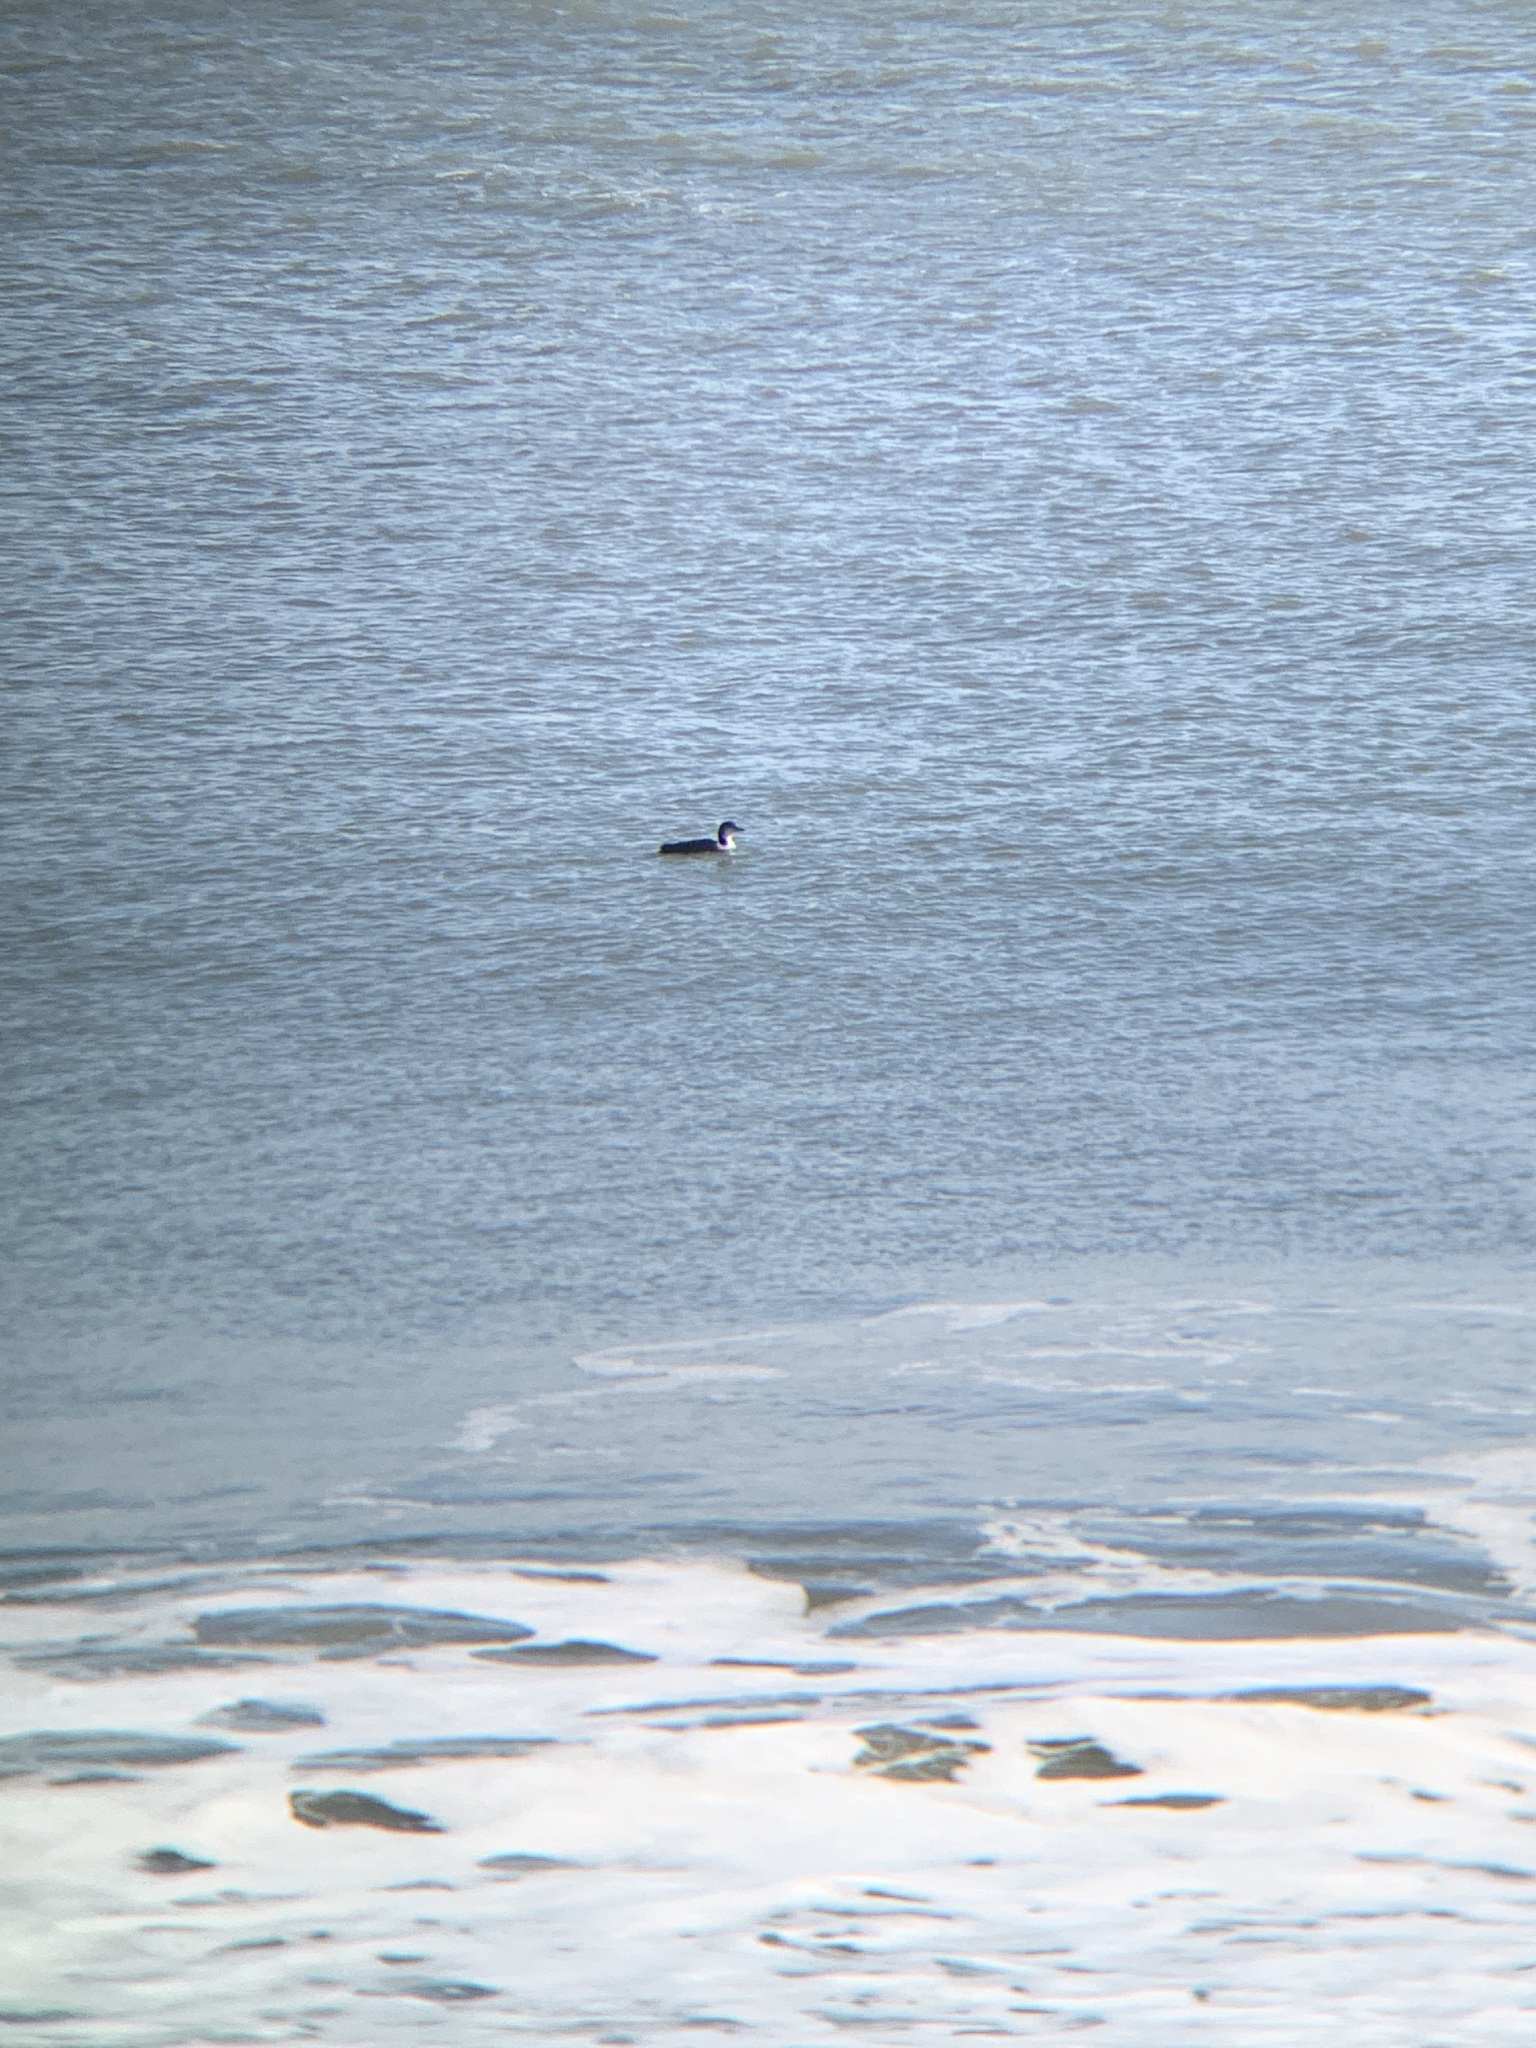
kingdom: Animalia
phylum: Chordata
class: Aves
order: Gaviiformes
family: Gaviidae
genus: Gavia
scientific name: Gavia immer
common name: Common loon
